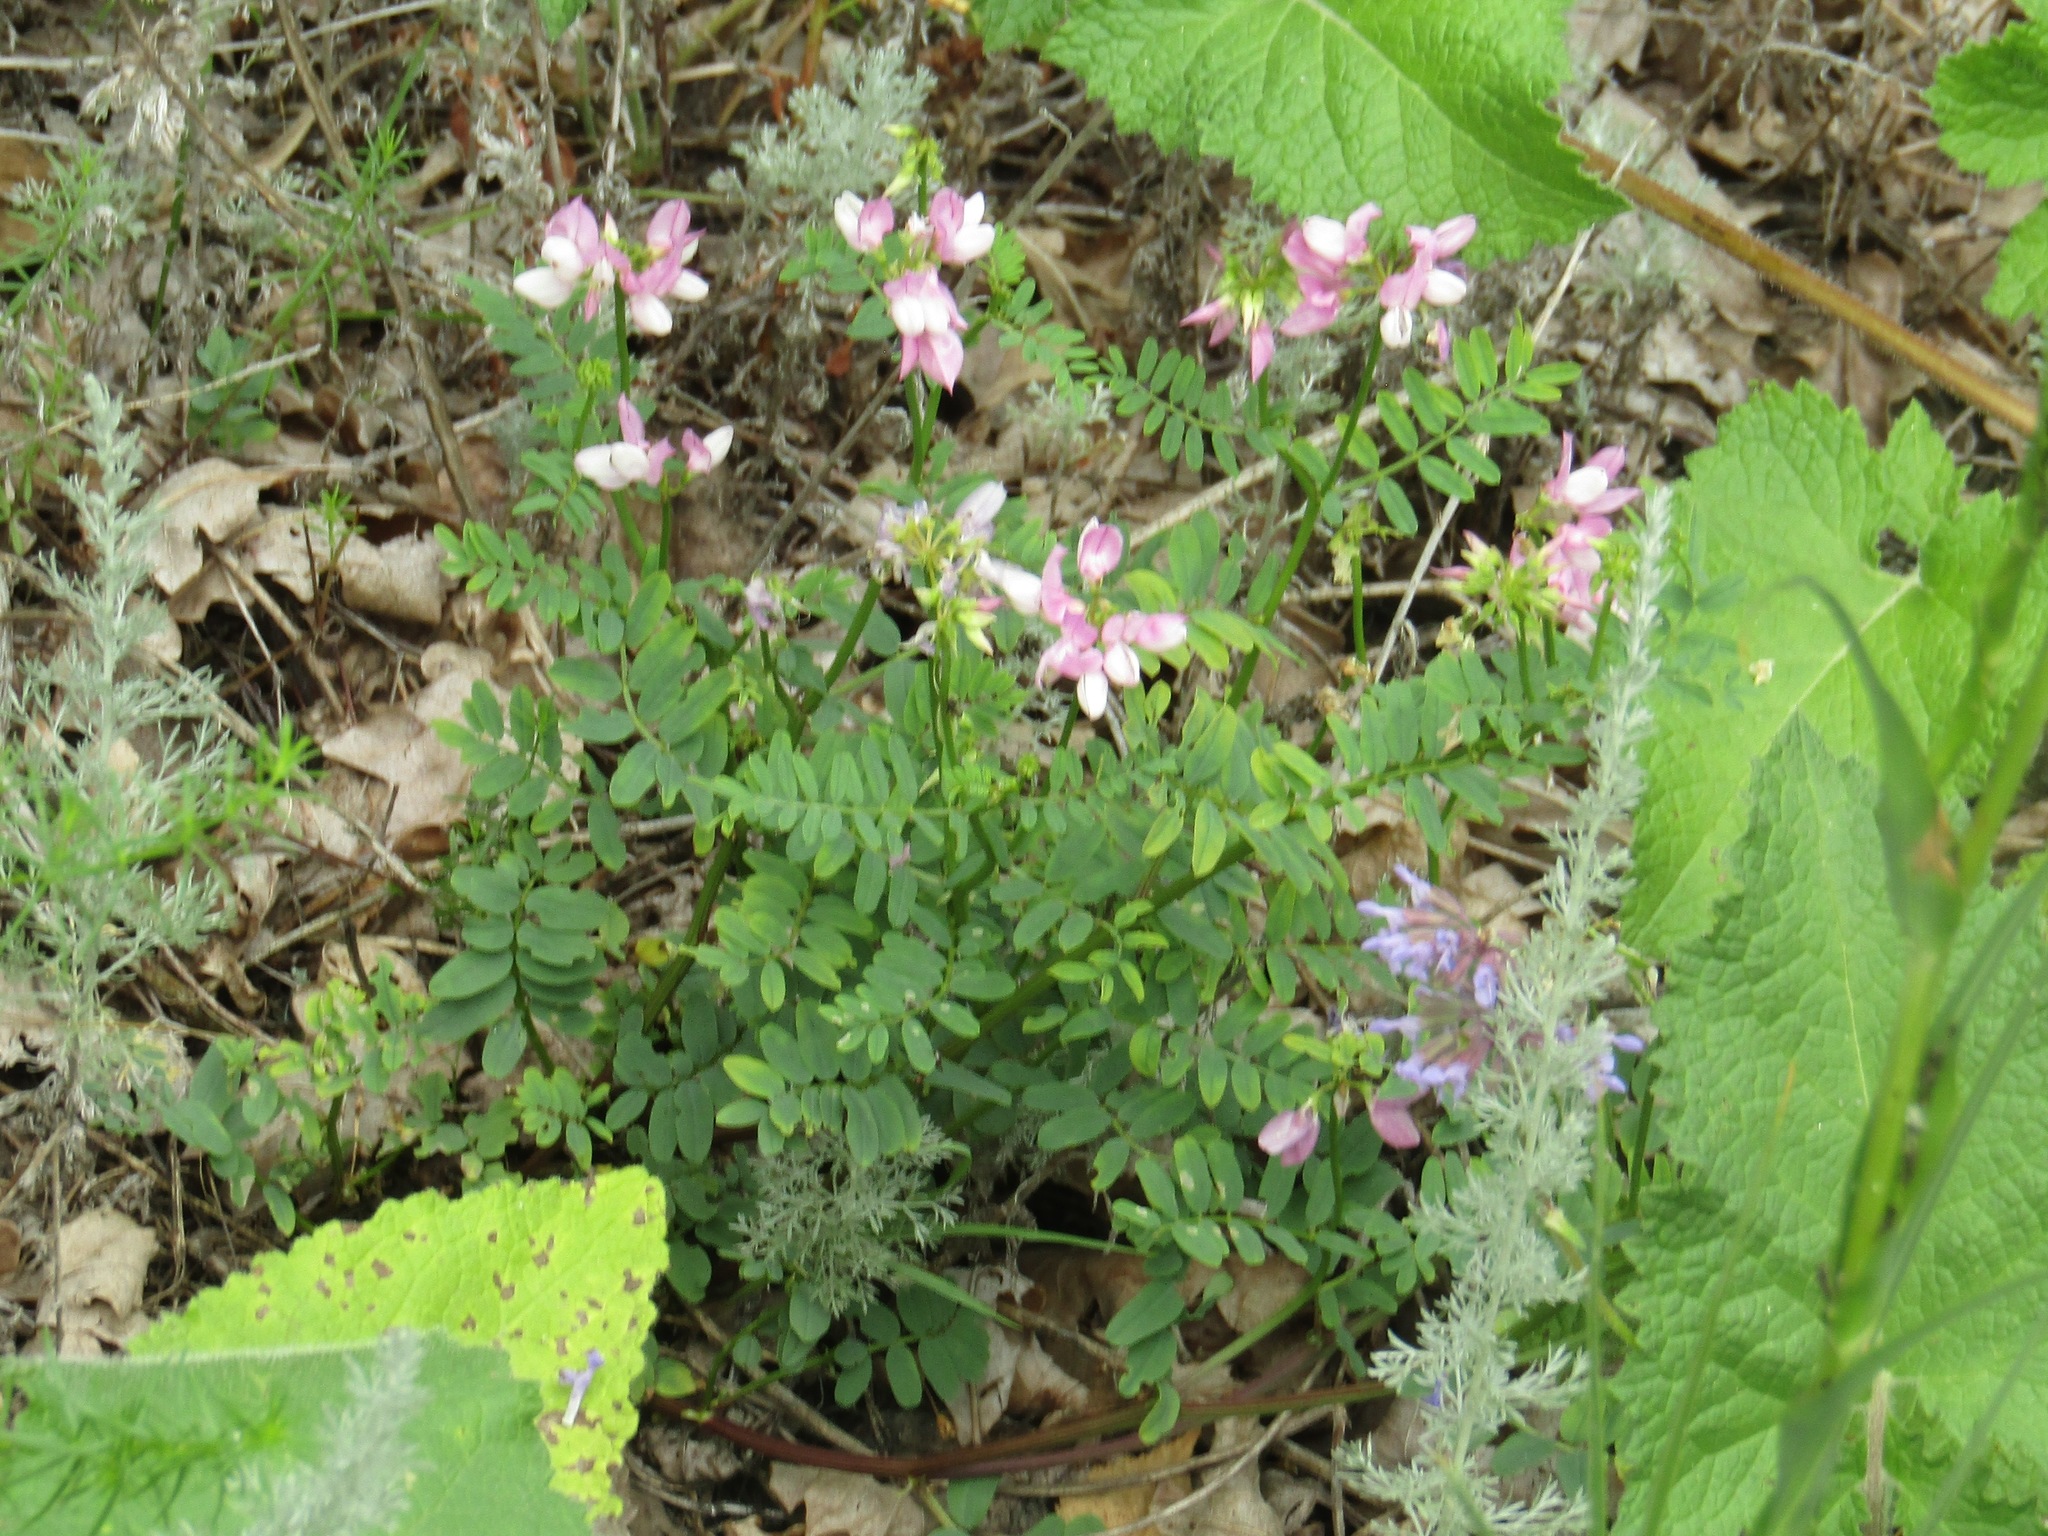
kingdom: Plantae
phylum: Tracheophyta
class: Magnoliopsida
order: Fabales
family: Fabaceae
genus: Coronilla
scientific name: Coronilla varia
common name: Crownvetch
